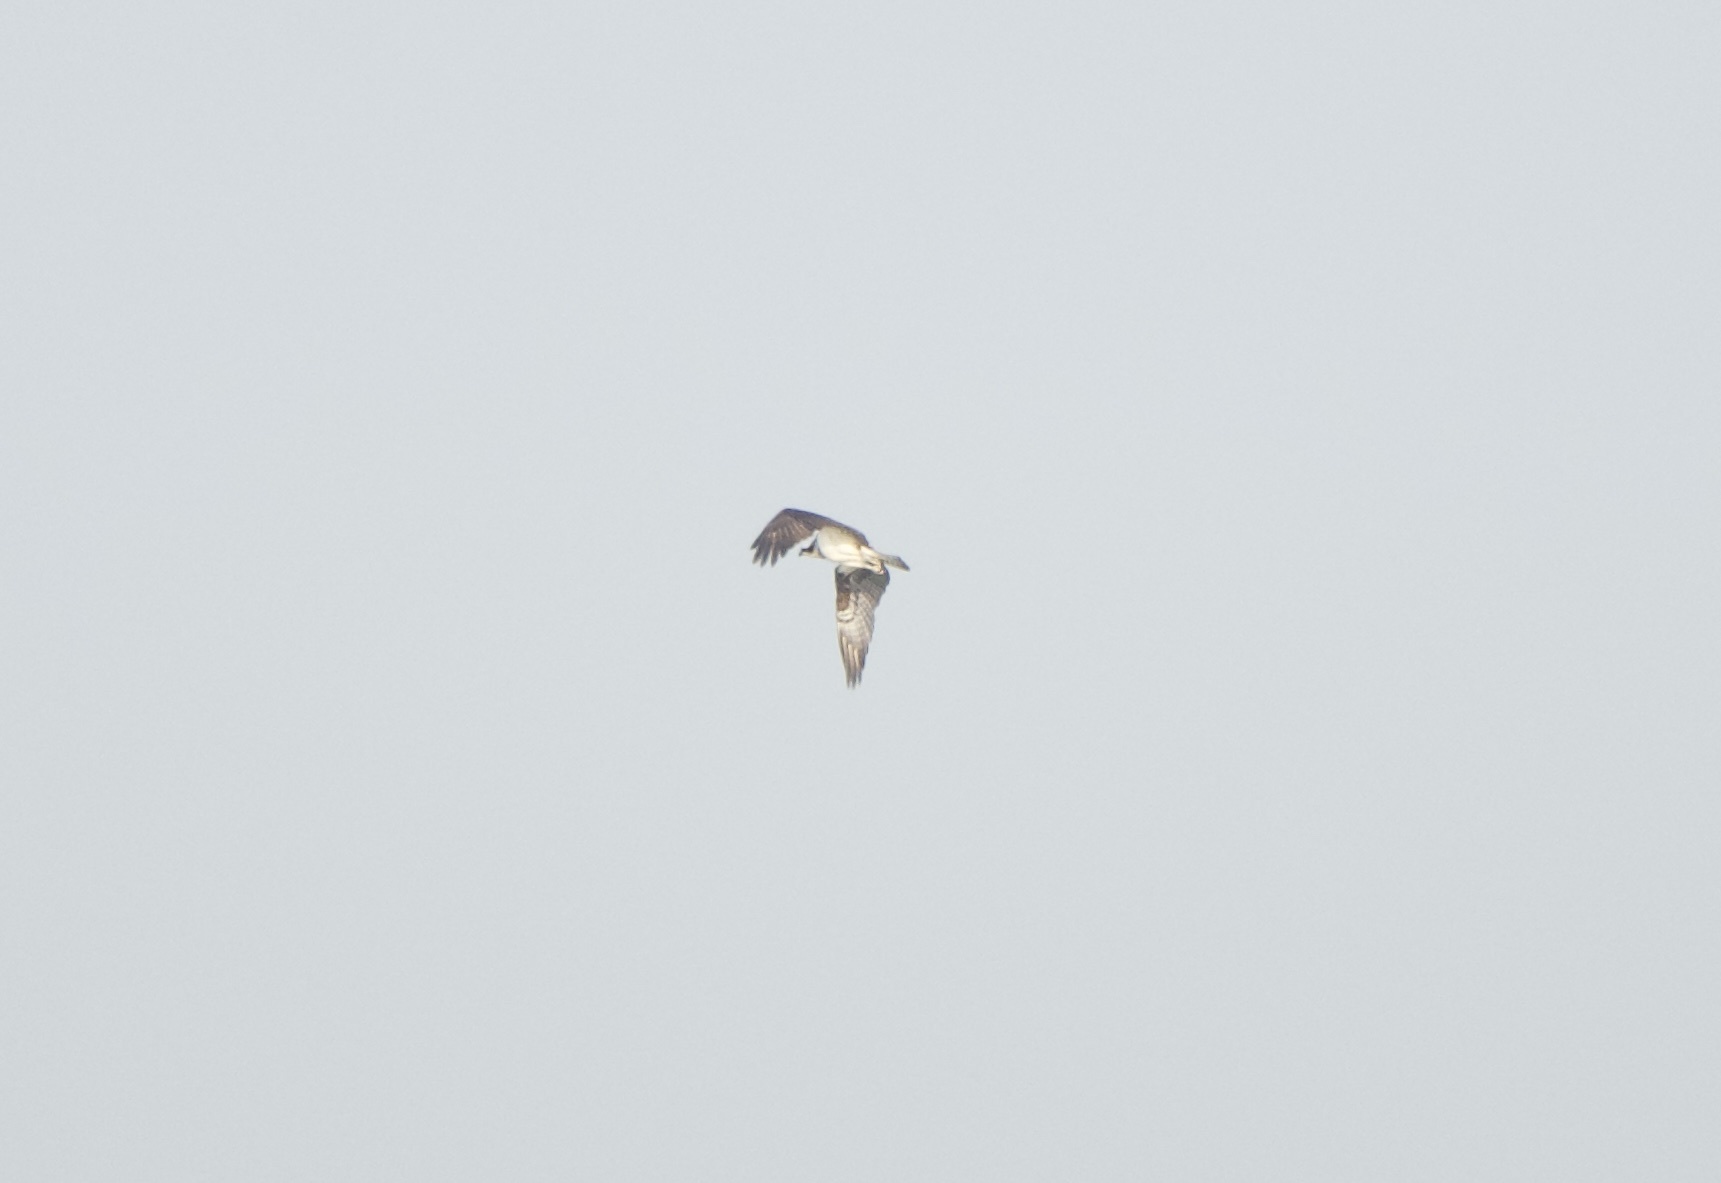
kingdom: Animalia
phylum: Chordata
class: Aves
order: Accipitriformes
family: Pandionidae
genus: Pandion
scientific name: Pandion haliaetus
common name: Osprey
